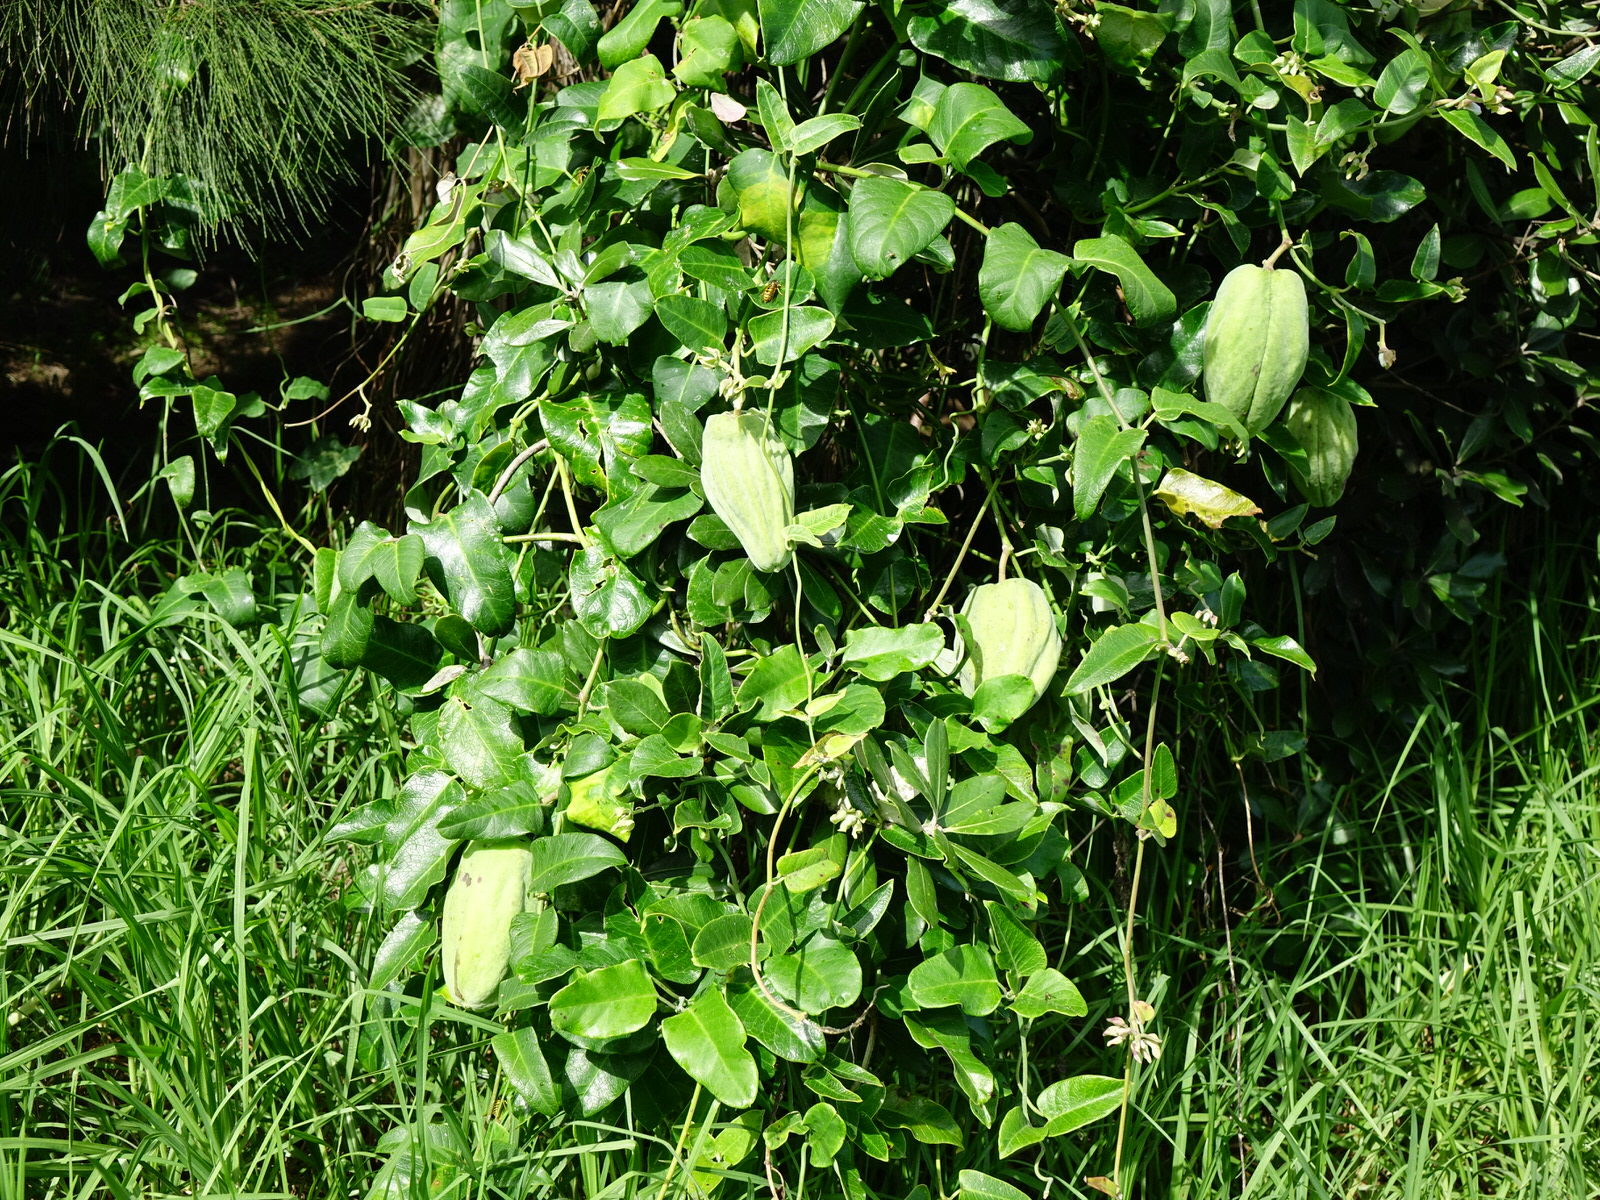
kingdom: Plantae
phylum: Tracheophyta
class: Magnoliopsida
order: Gentianales
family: Apocynaceae
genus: Araujia
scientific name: Araujia sericifera
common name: White bladderflower
